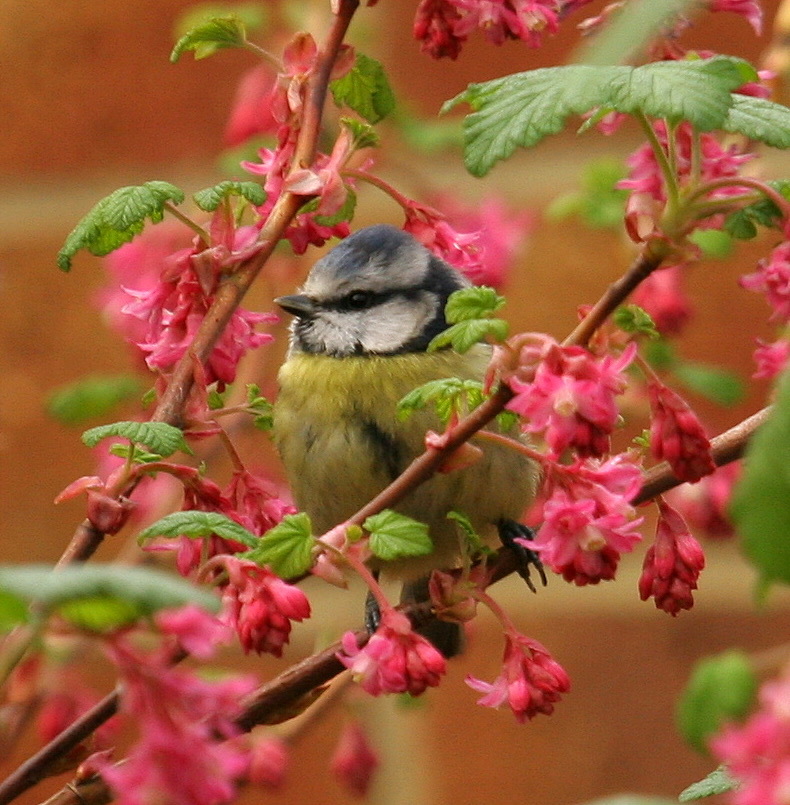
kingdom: Animalia
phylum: Chordata
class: Aves
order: Passeriformes
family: Paridae
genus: Cyanistes
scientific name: Cyanistes caeruleus
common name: Eurasian blue tit
